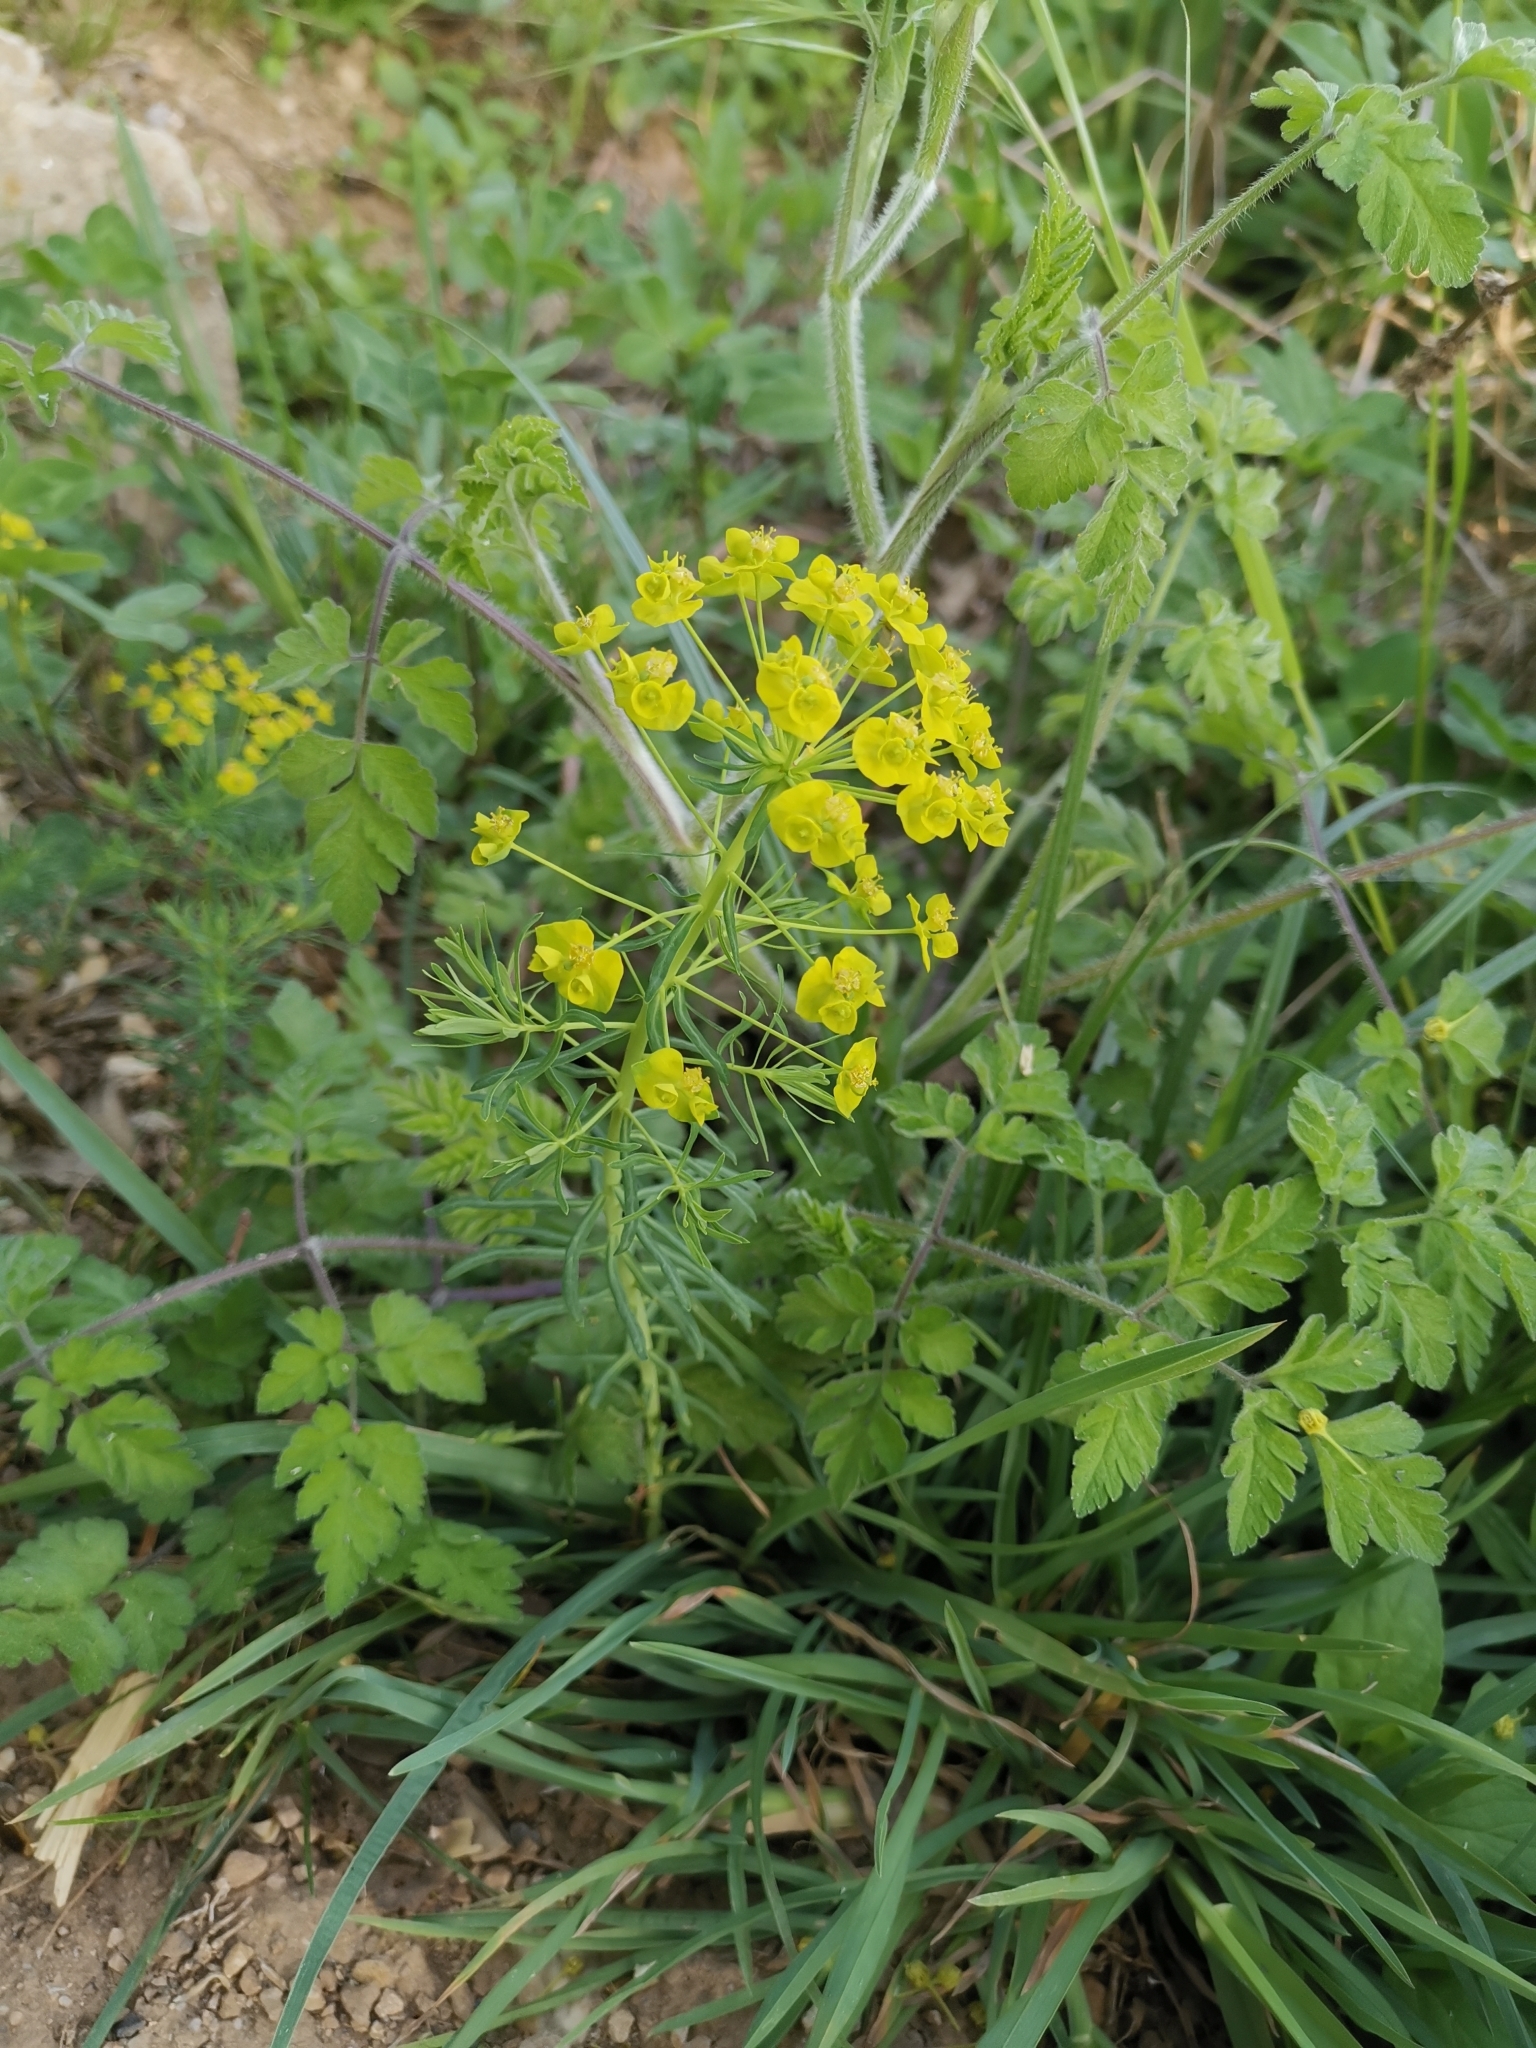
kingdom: Plantae
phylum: Tracheophyta
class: Magnoliopsida
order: Malpighiales
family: Euphorbiaceae
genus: Euphorbia
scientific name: Euphorbia cyparissias
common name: Cypress spurge
